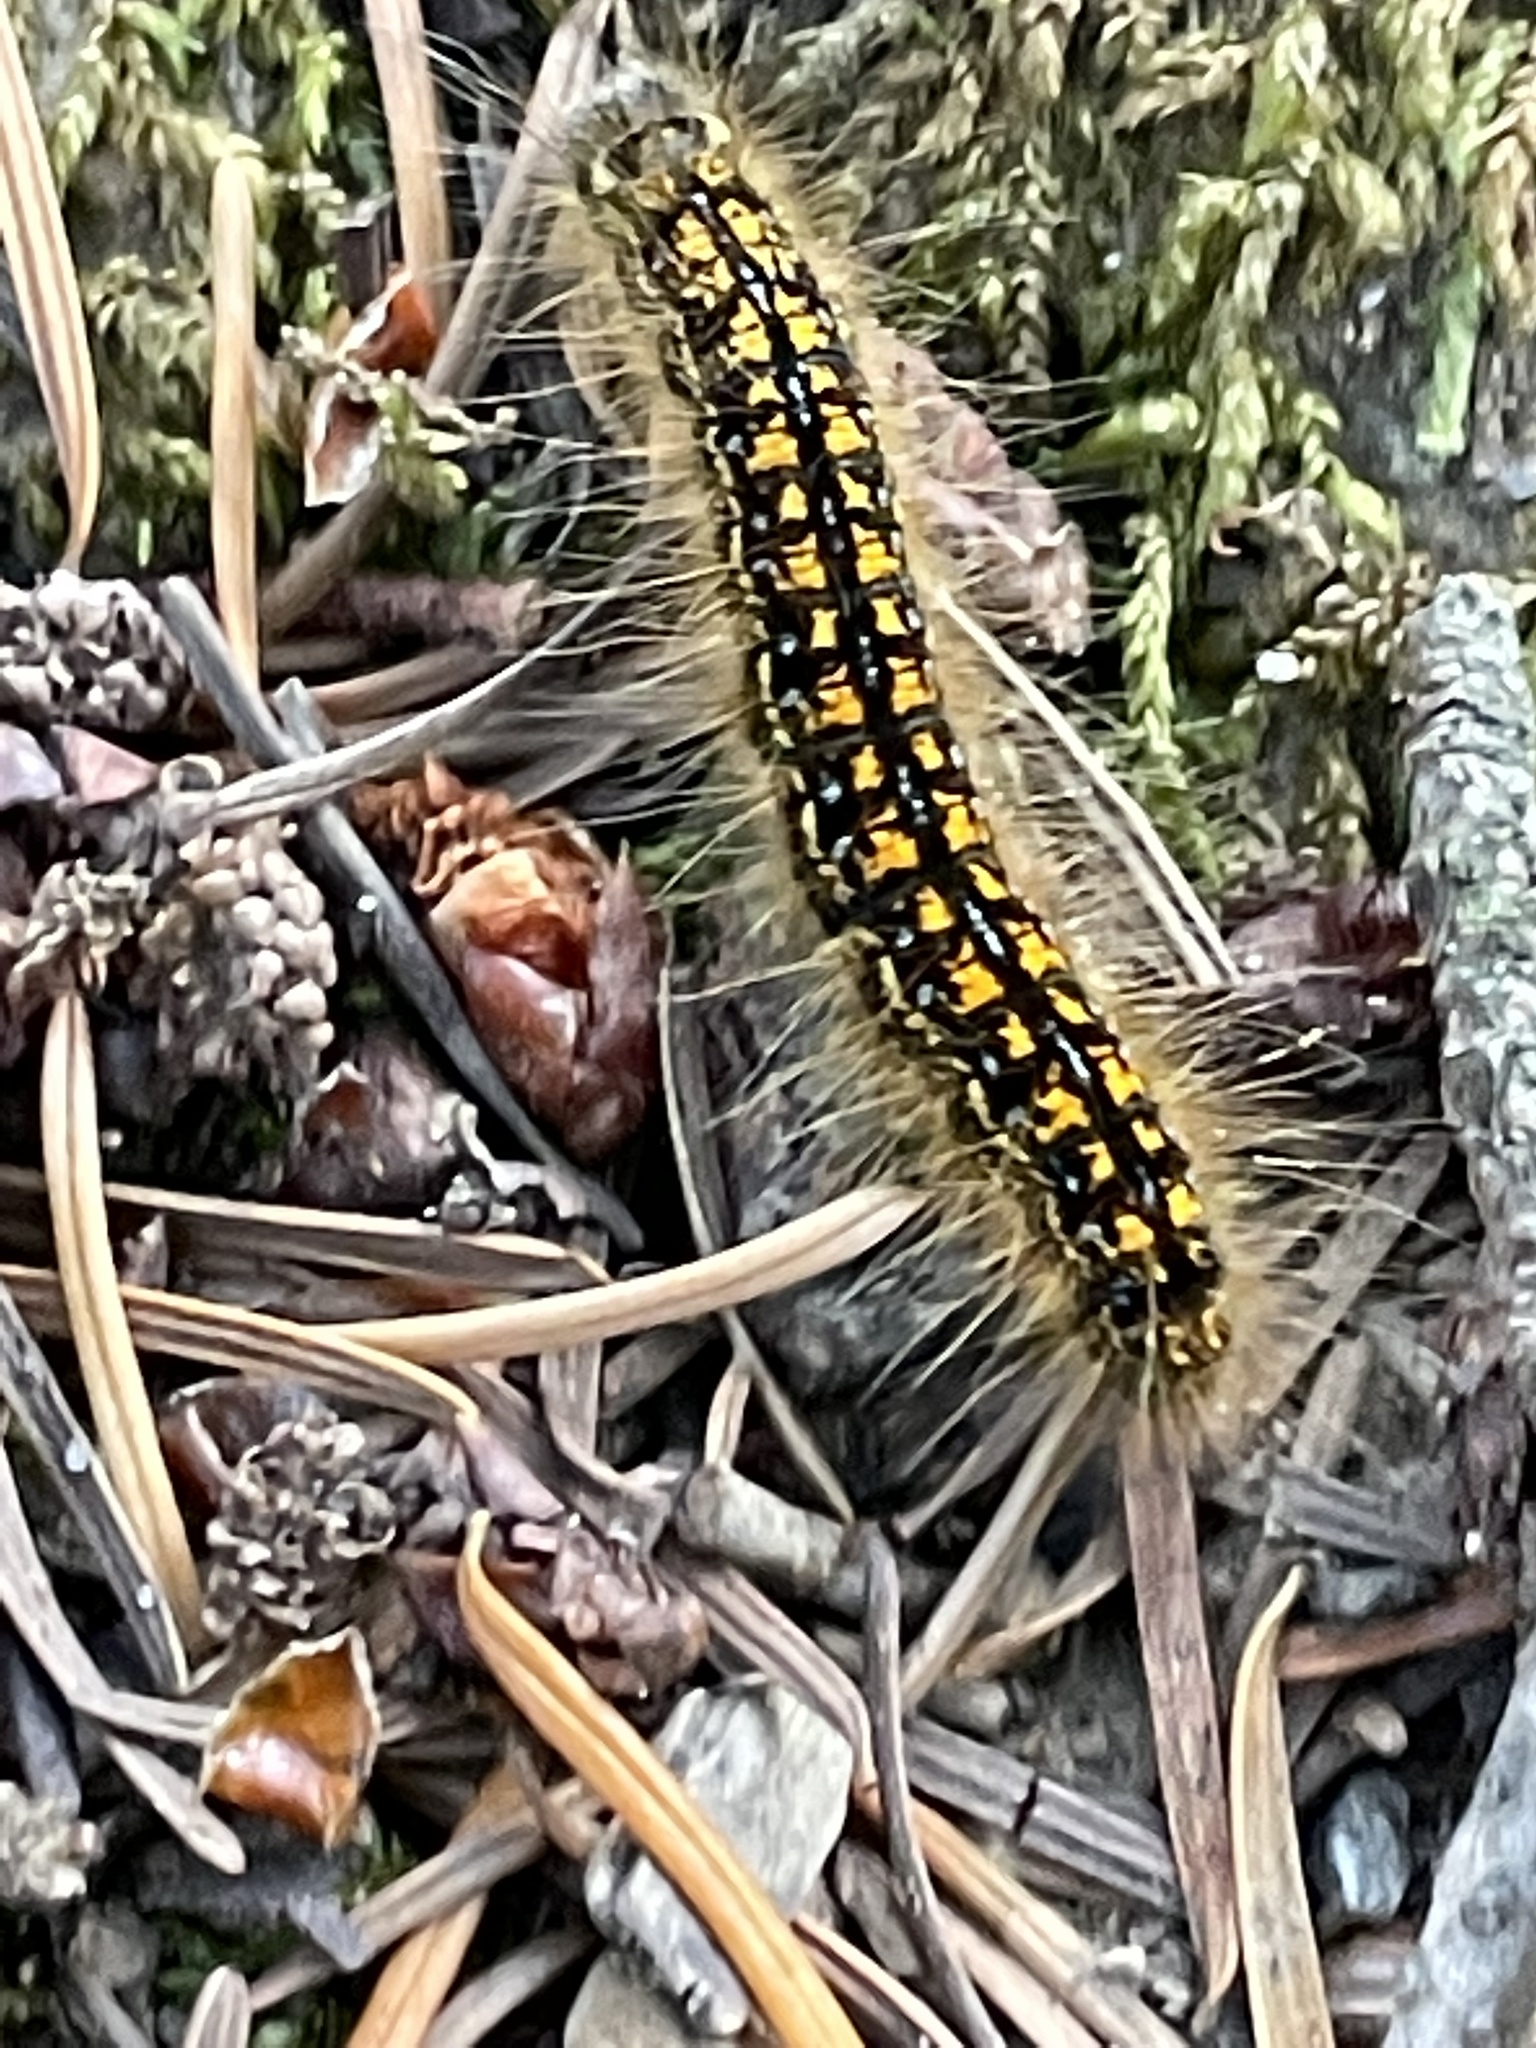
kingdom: Animalia
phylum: Arthropoda
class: Insecta
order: Lepidoptera
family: Lasiocampidae
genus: Malacosoma
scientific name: Malacosoma californica
